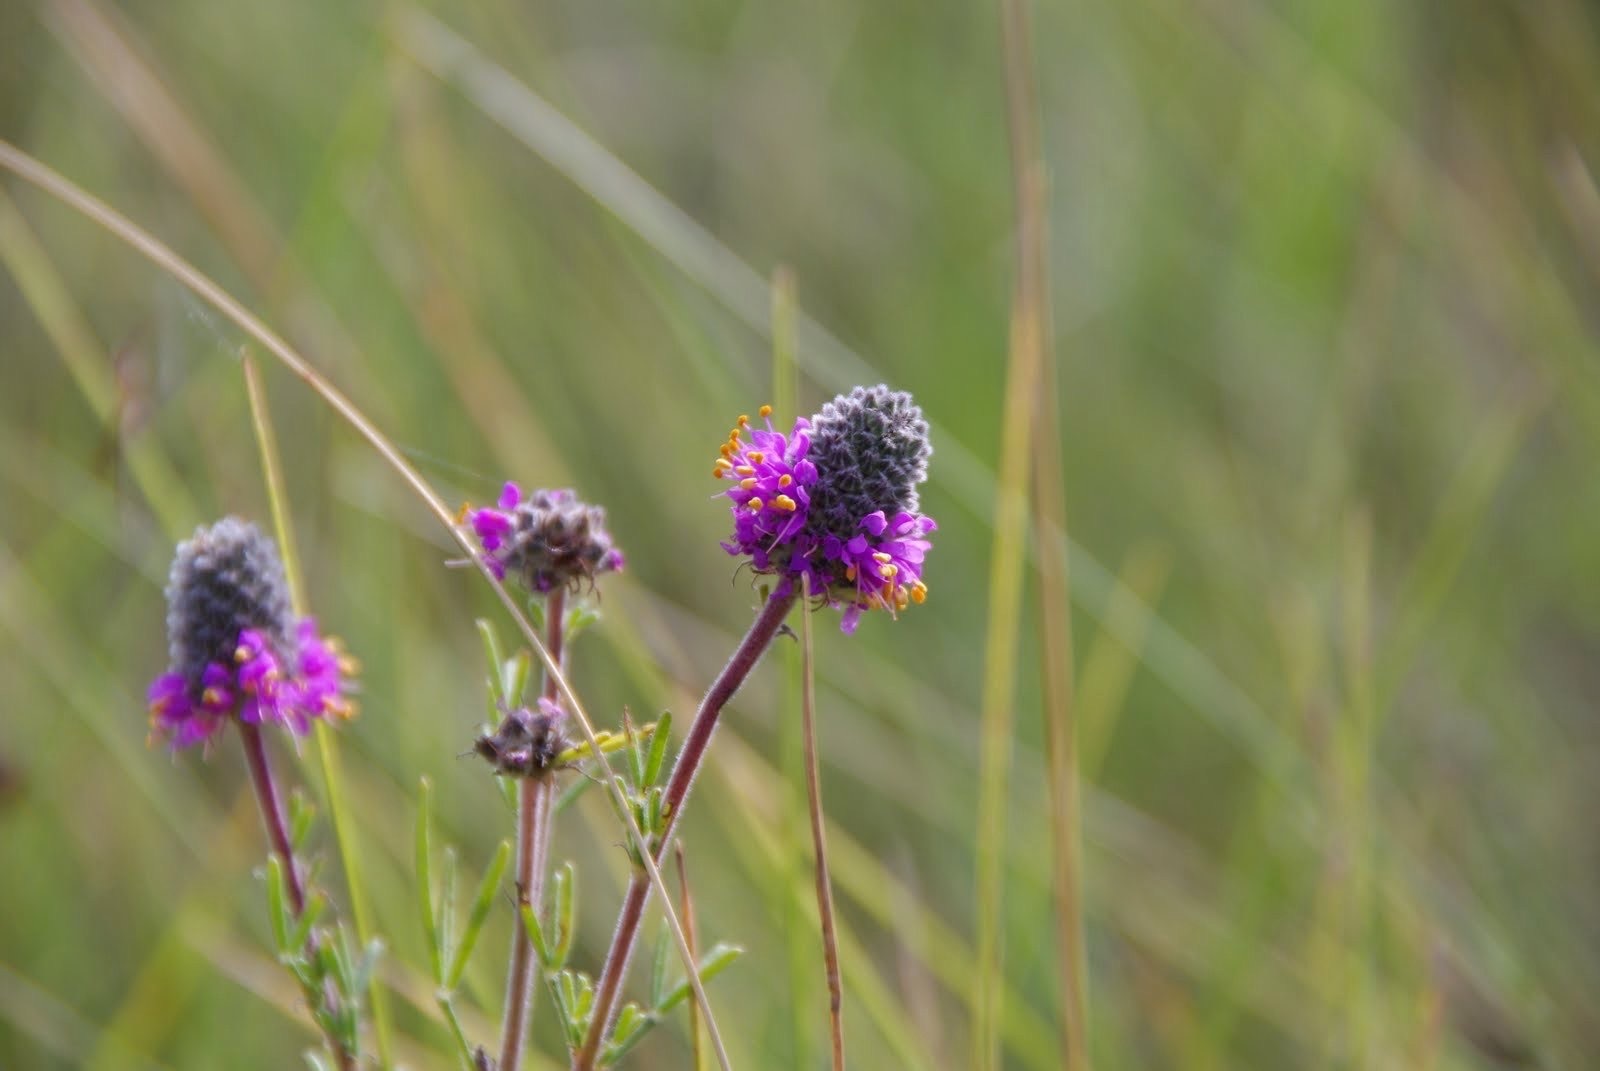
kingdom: Plantae
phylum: Tracheophyta
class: Magnoliopsida
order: Fabales
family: Fabaceae
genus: Dalea
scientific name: Dalea purpurea
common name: Purple prairie-clover
